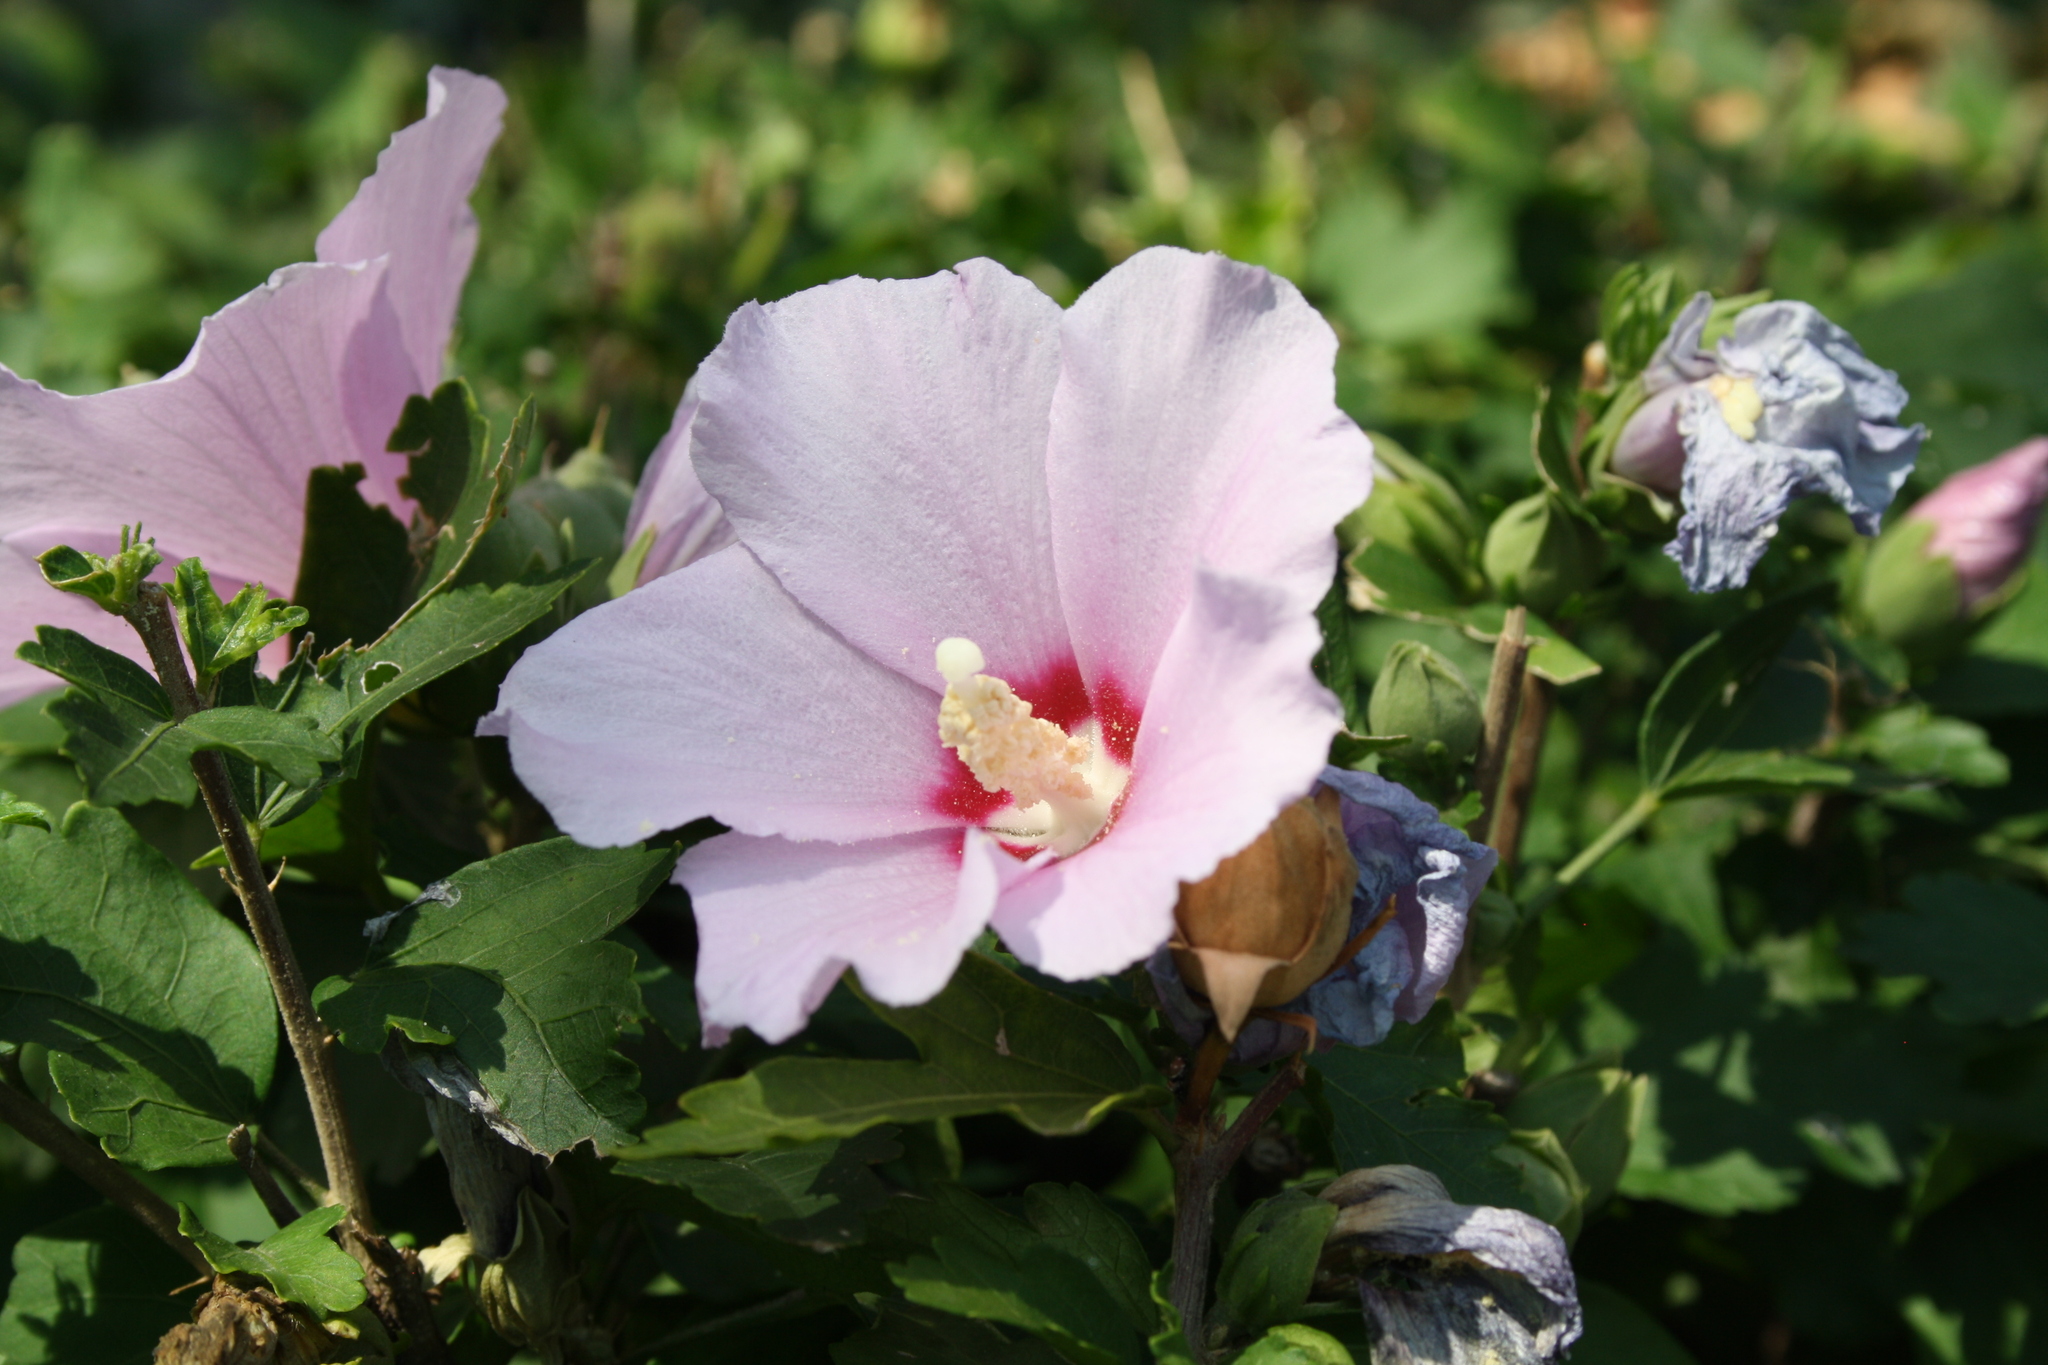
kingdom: Plantae
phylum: Tracheophyta
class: Magnoliopsida
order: Malvales
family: Malvaceae
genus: Hibiscus
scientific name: Hibiscus syriacus
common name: Syrian ketmia
